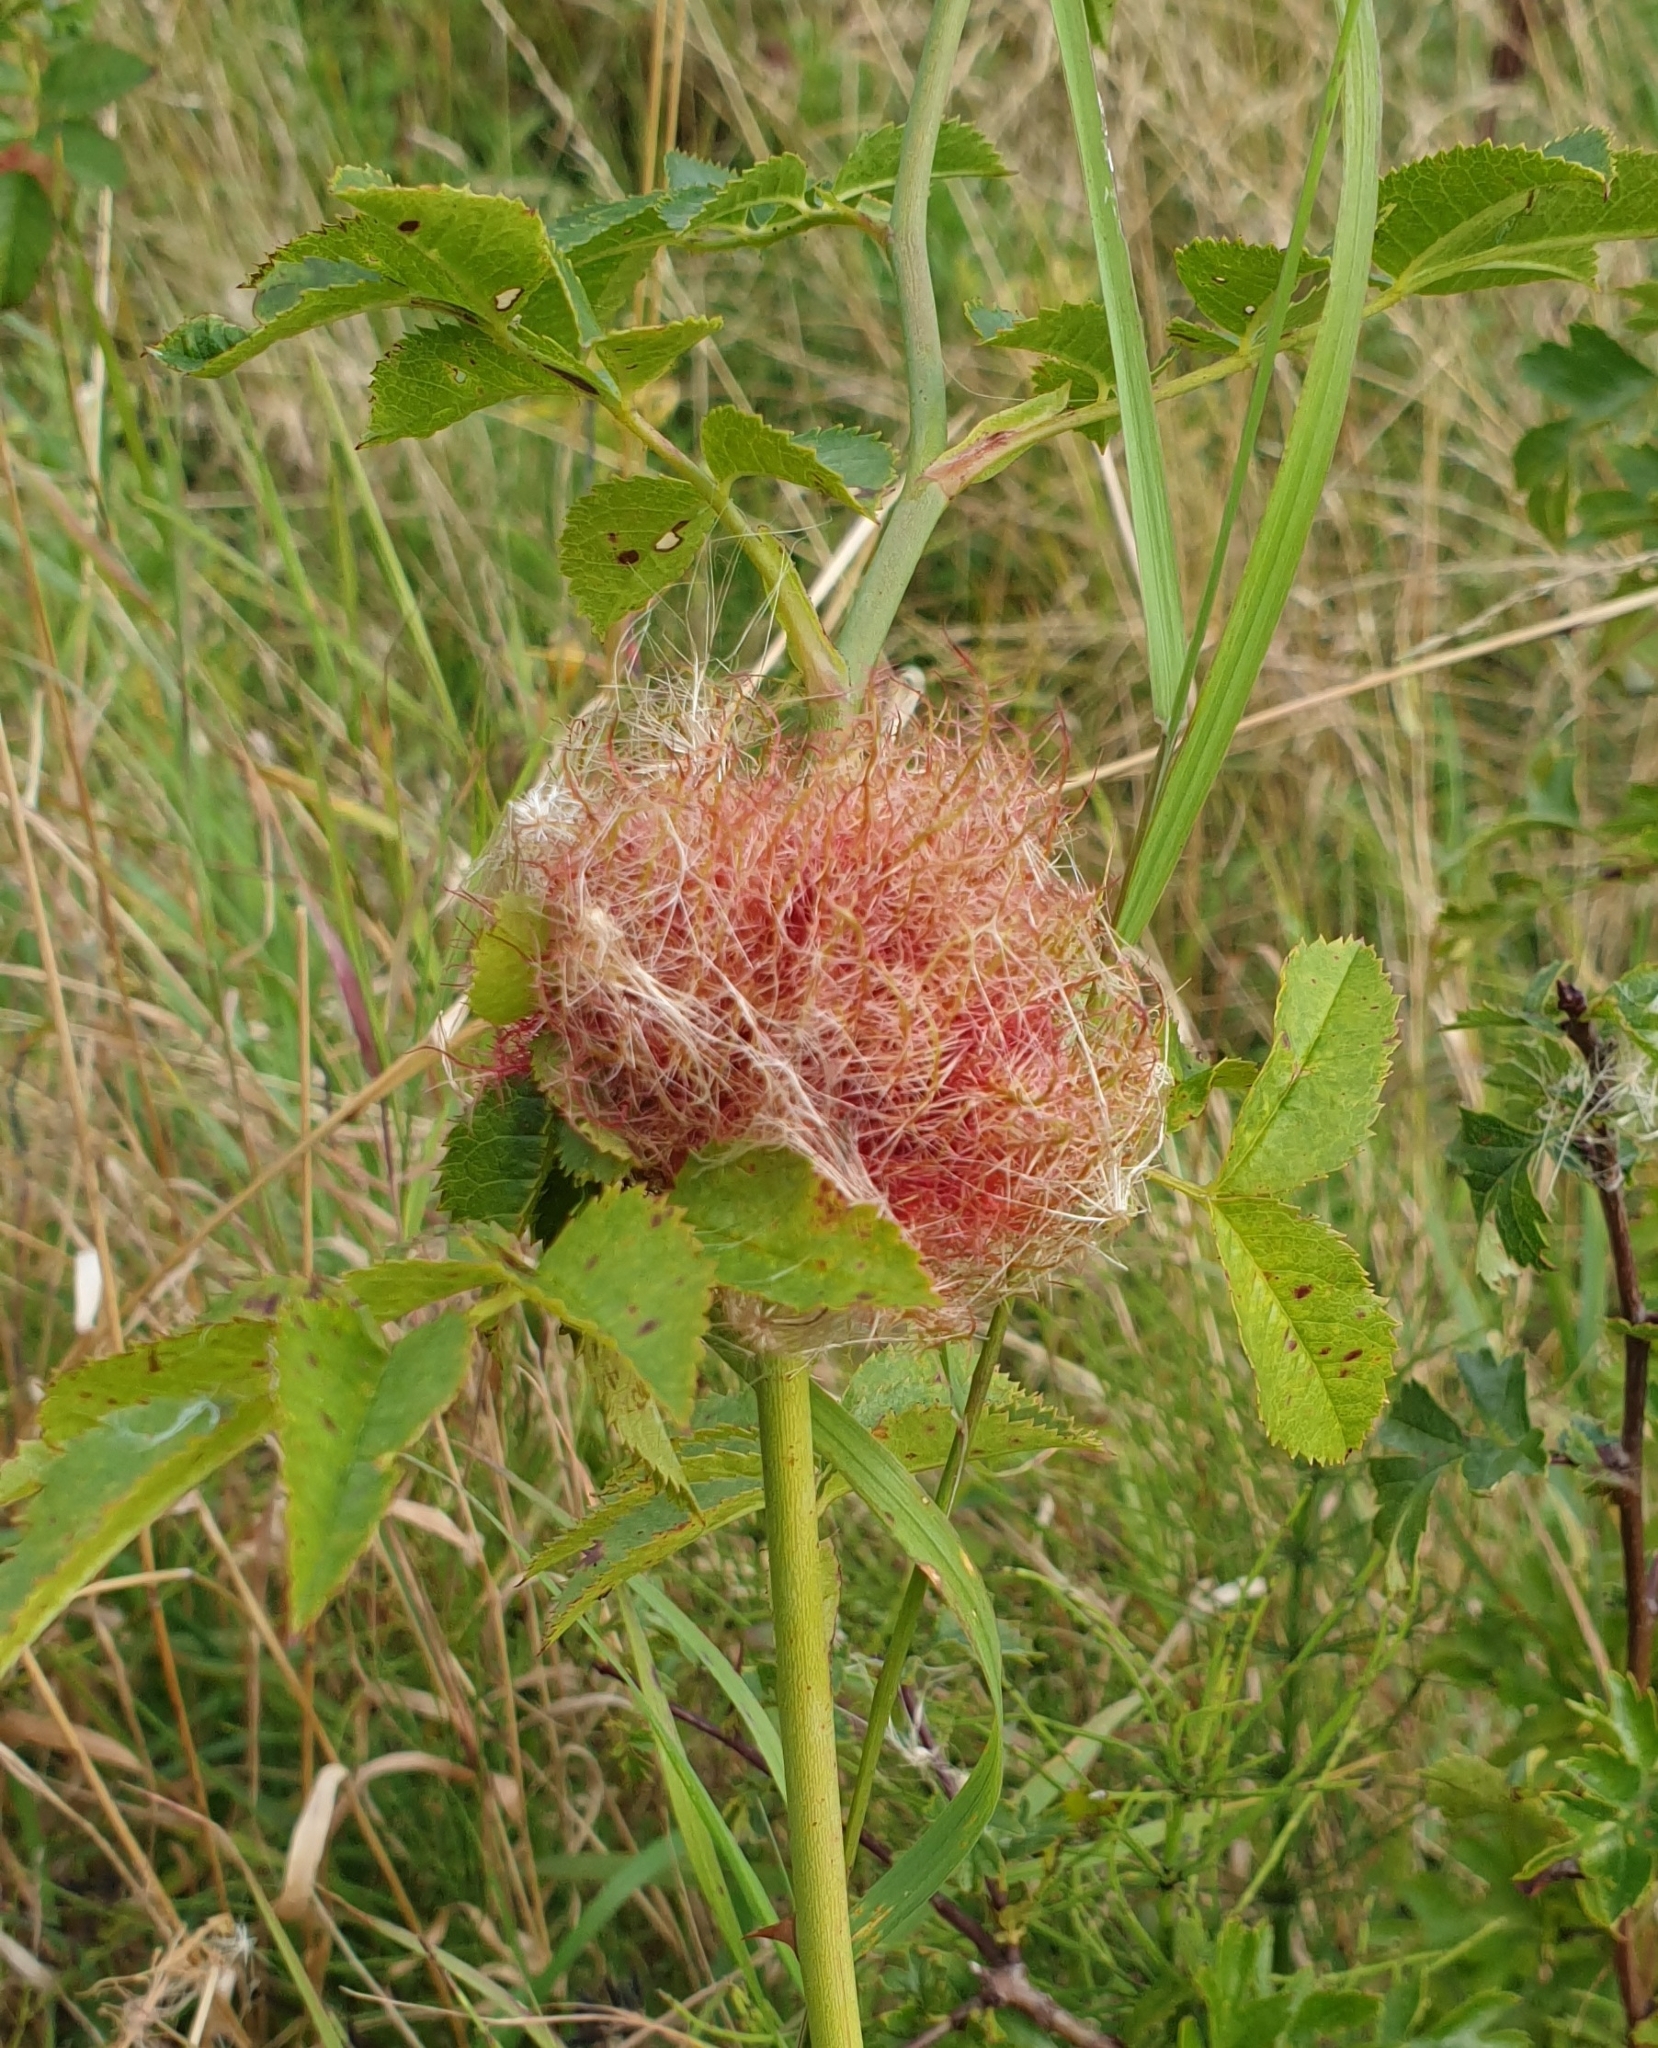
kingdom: Animalia
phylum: Arthropoda
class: Insecta
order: Hymenoptera
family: Cynipidae
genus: Diplolepis
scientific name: Diplolepis rosae
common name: Bedeguar gall
